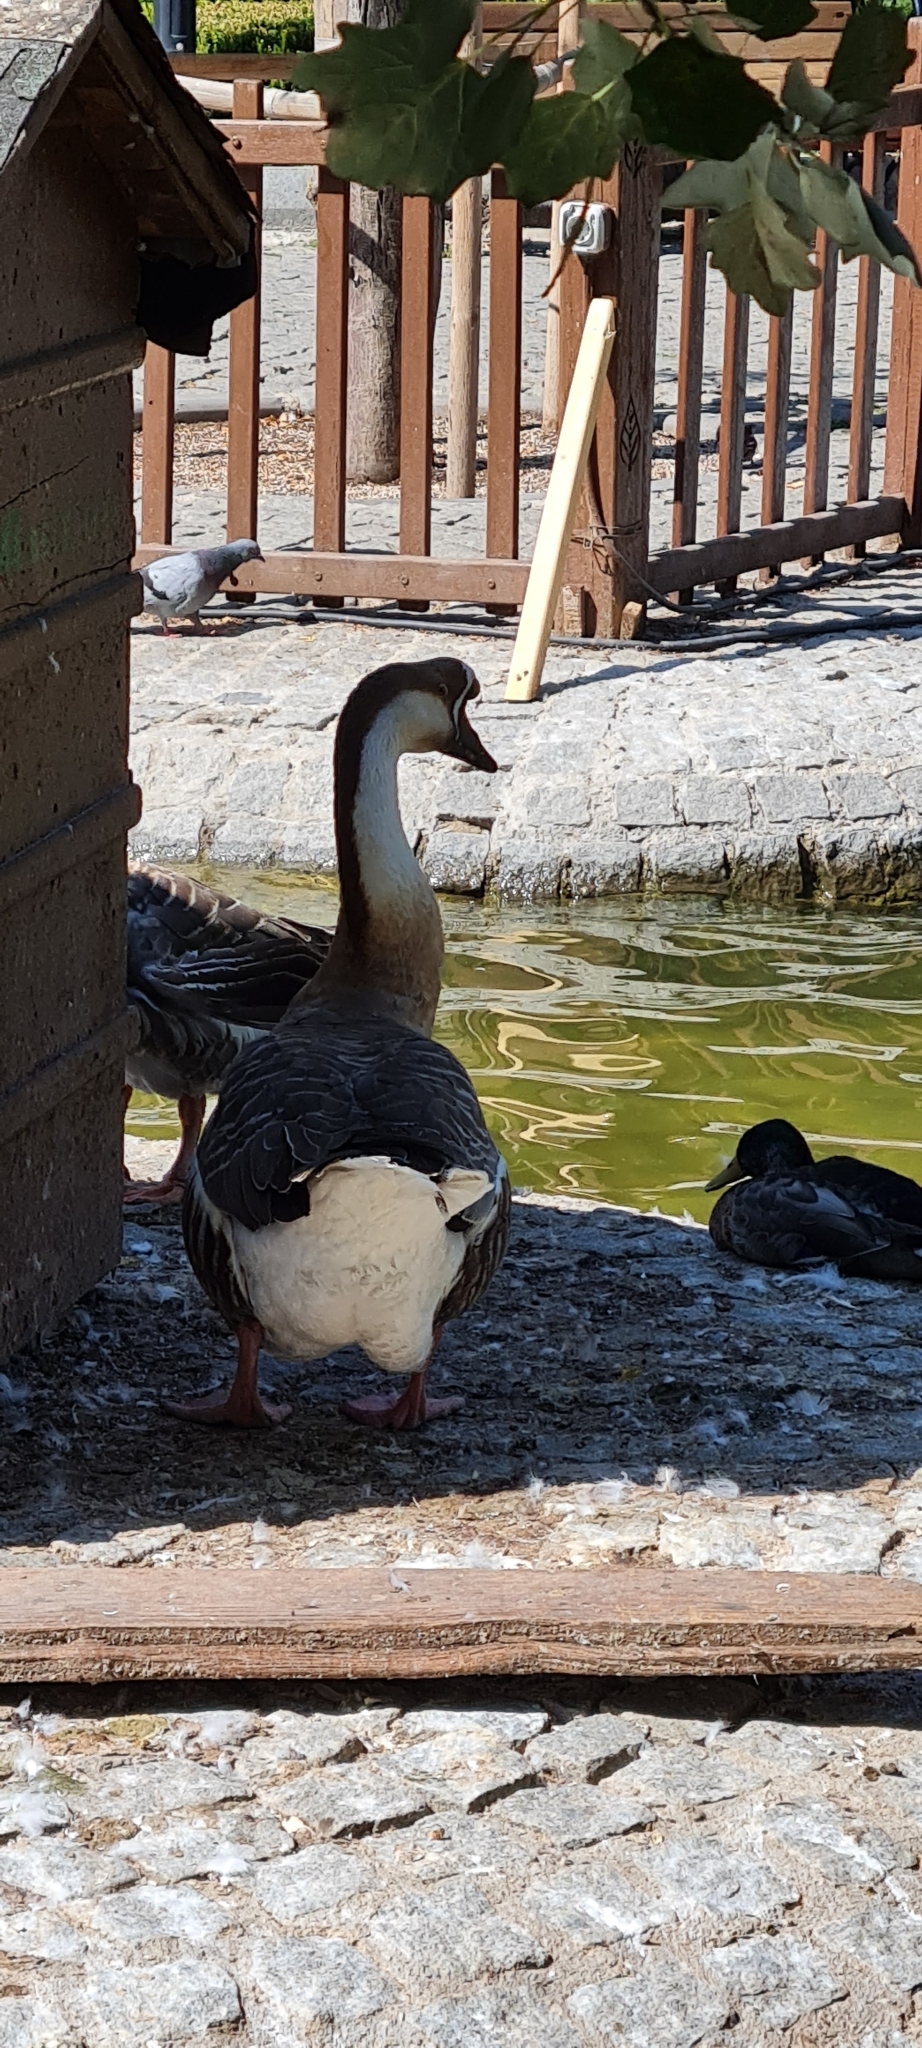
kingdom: Animalia
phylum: Chordata
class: Aves
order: Anseriformes
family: Anatidae
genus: Anser
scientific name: Anser cygnoides
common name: Swan goose
